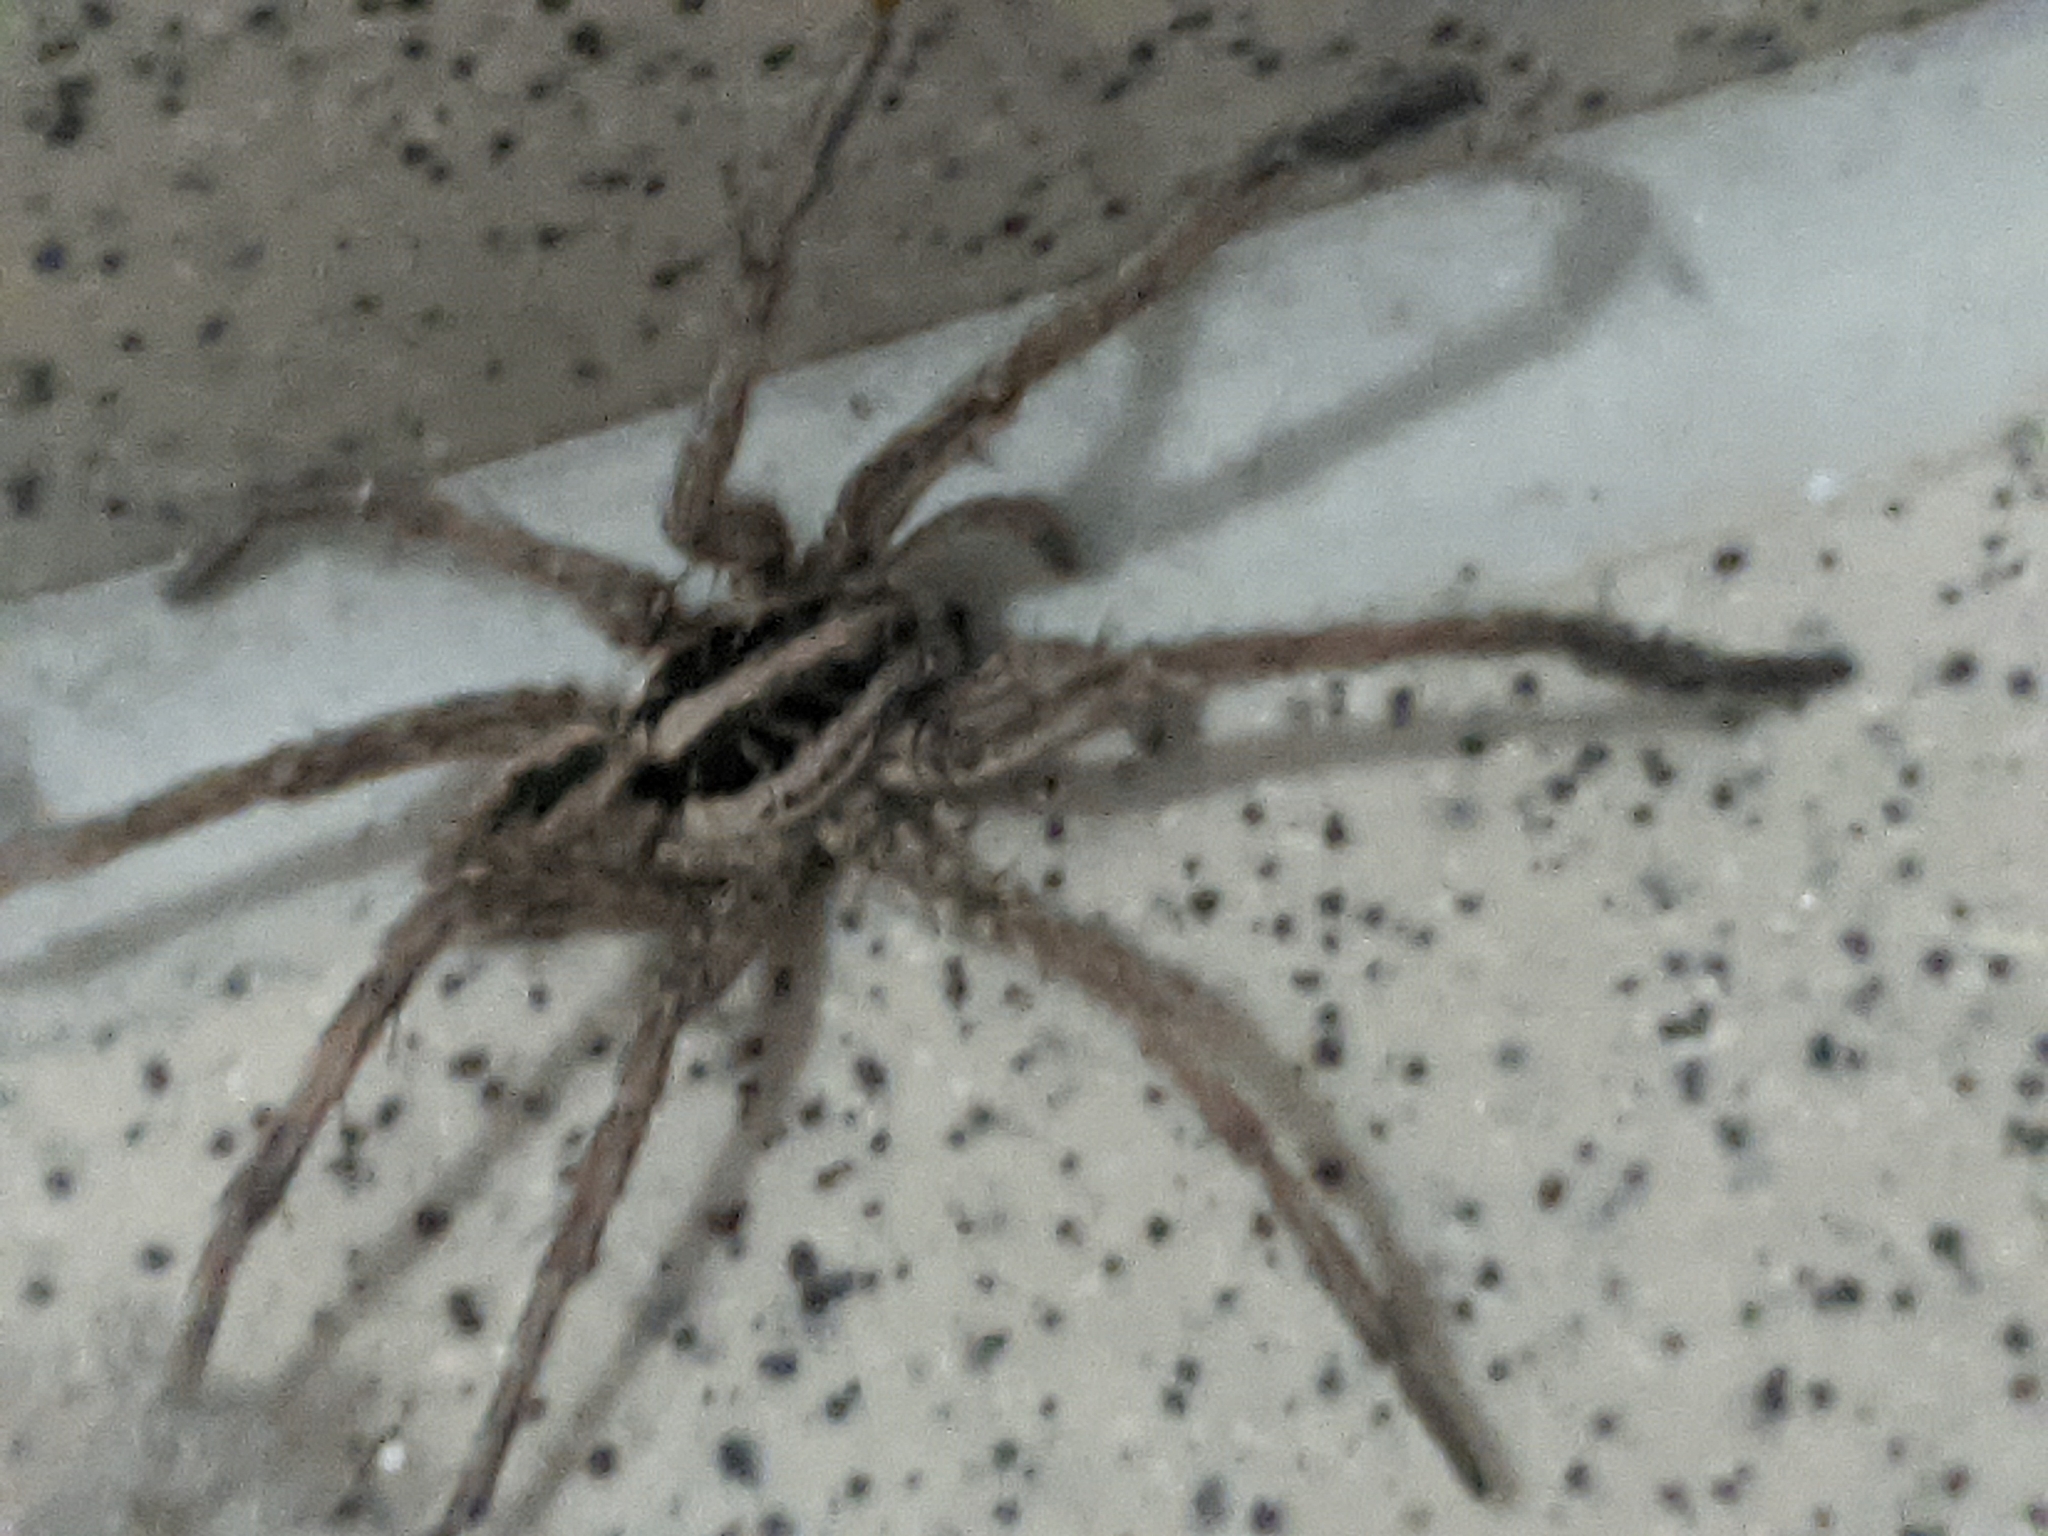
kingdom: Animalia
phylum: Arthropoda
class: Arachnida
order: Araneae
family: Lycosidae
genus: Hogna
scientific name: Hogna radiata
